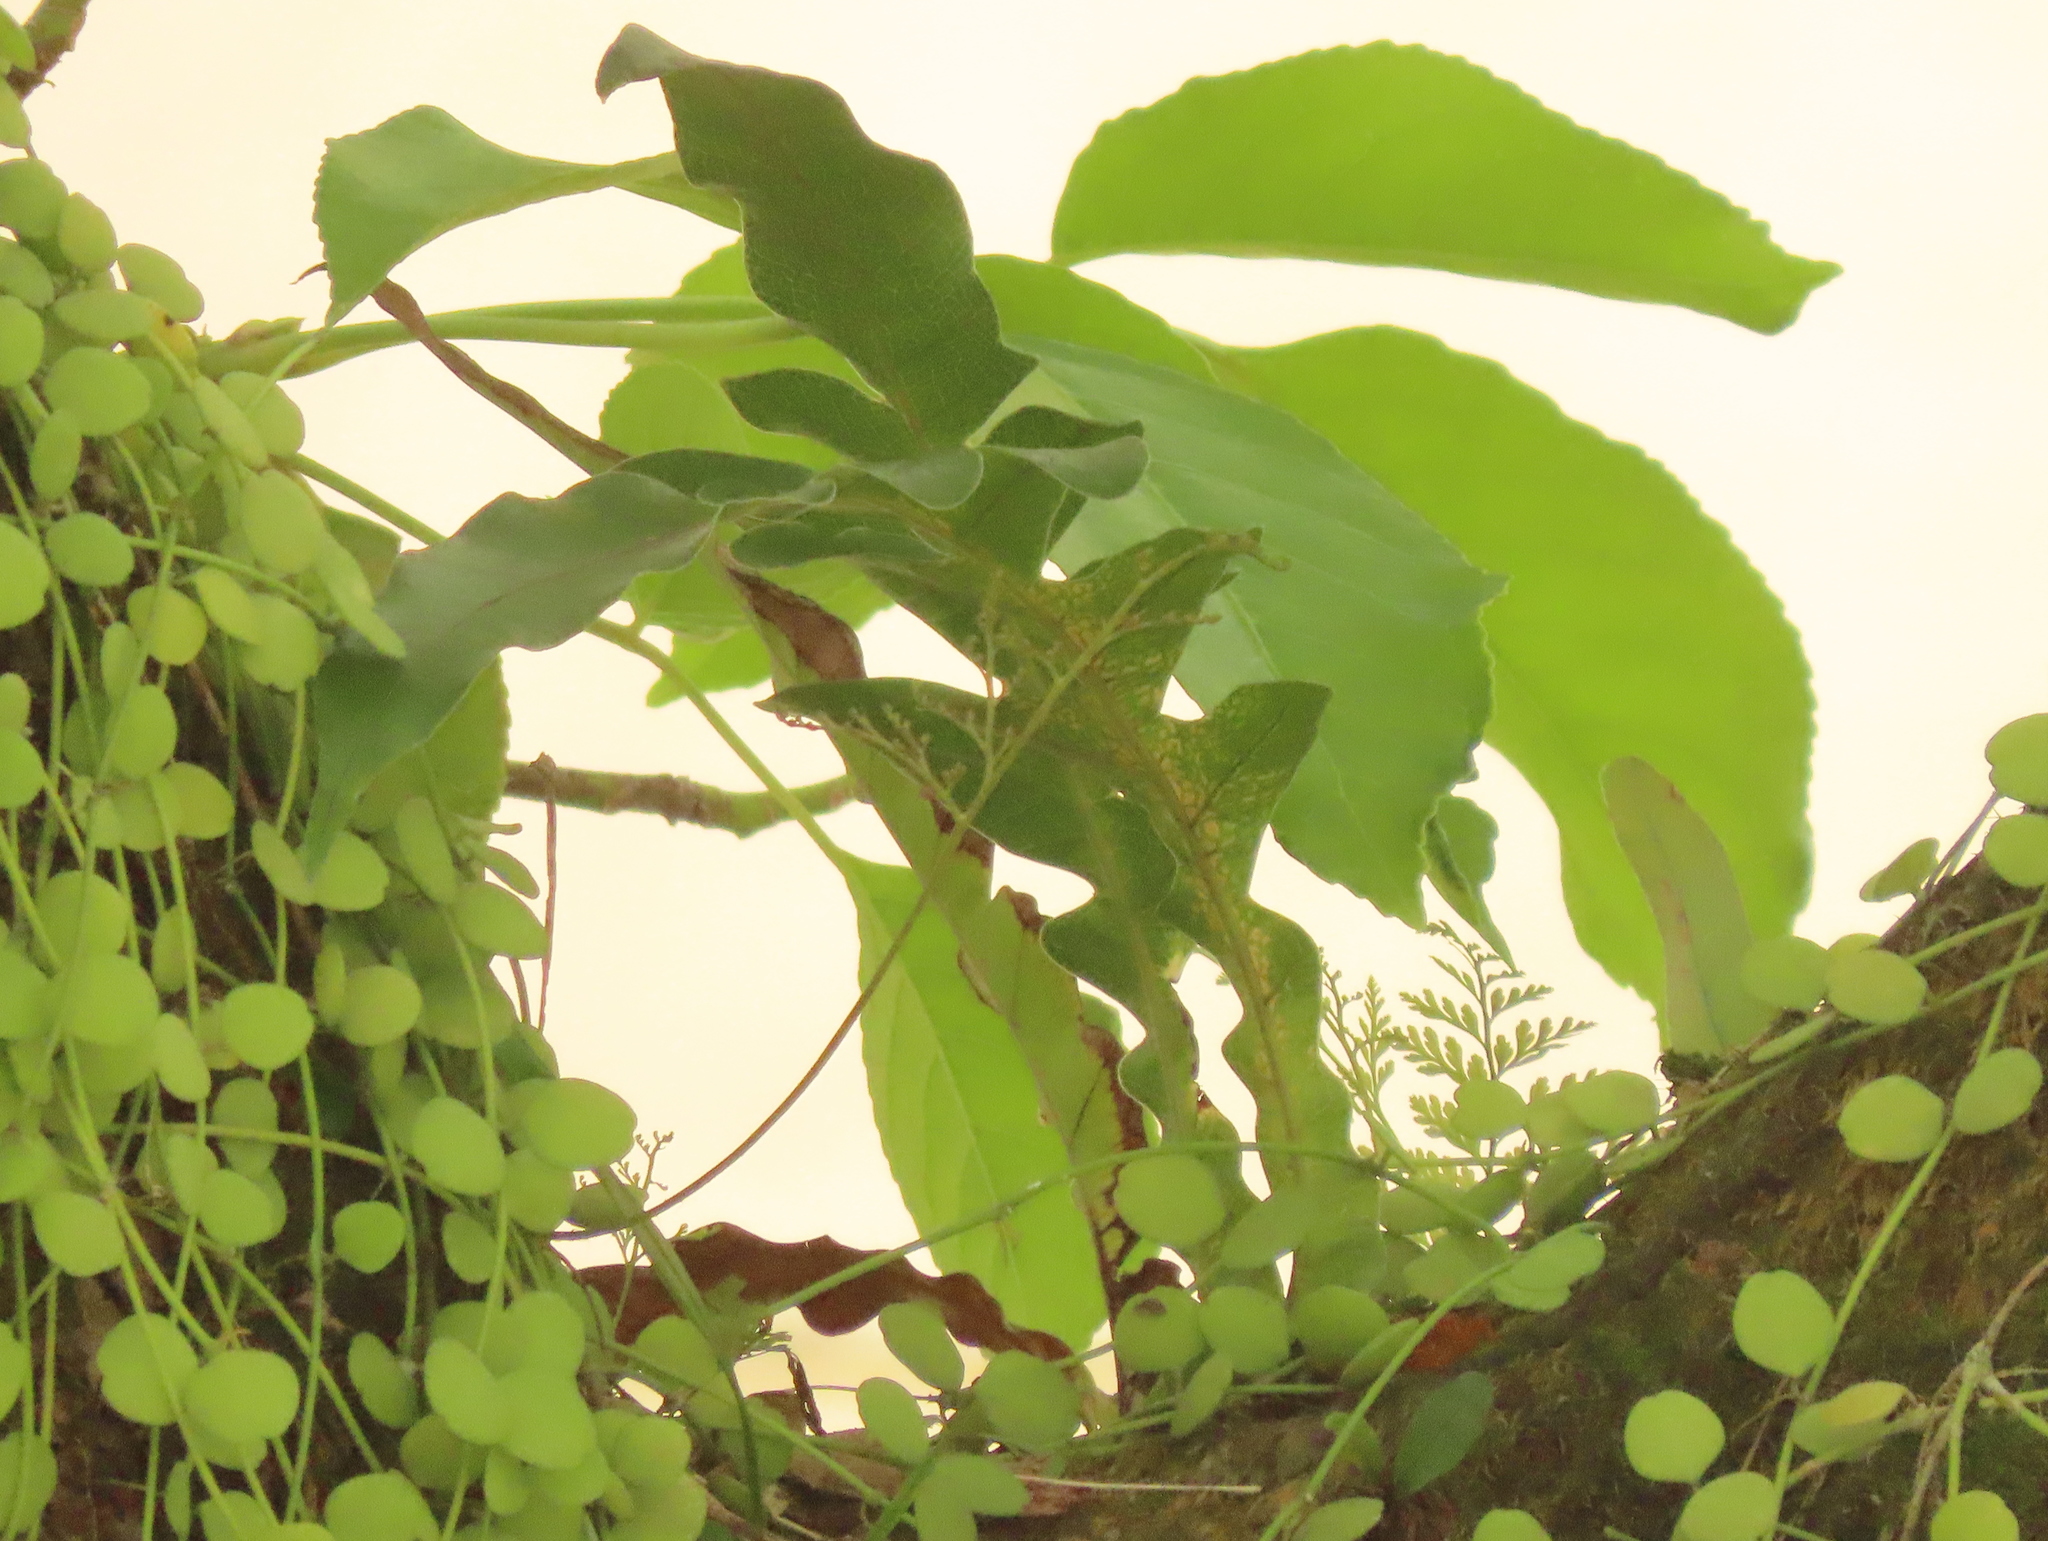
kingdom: Plantae
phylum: Tracheophyta
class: Polypodiopsida
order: Polypodiales
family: Polypodiaceae
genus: Drynaria
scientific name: Drynaria coronans
